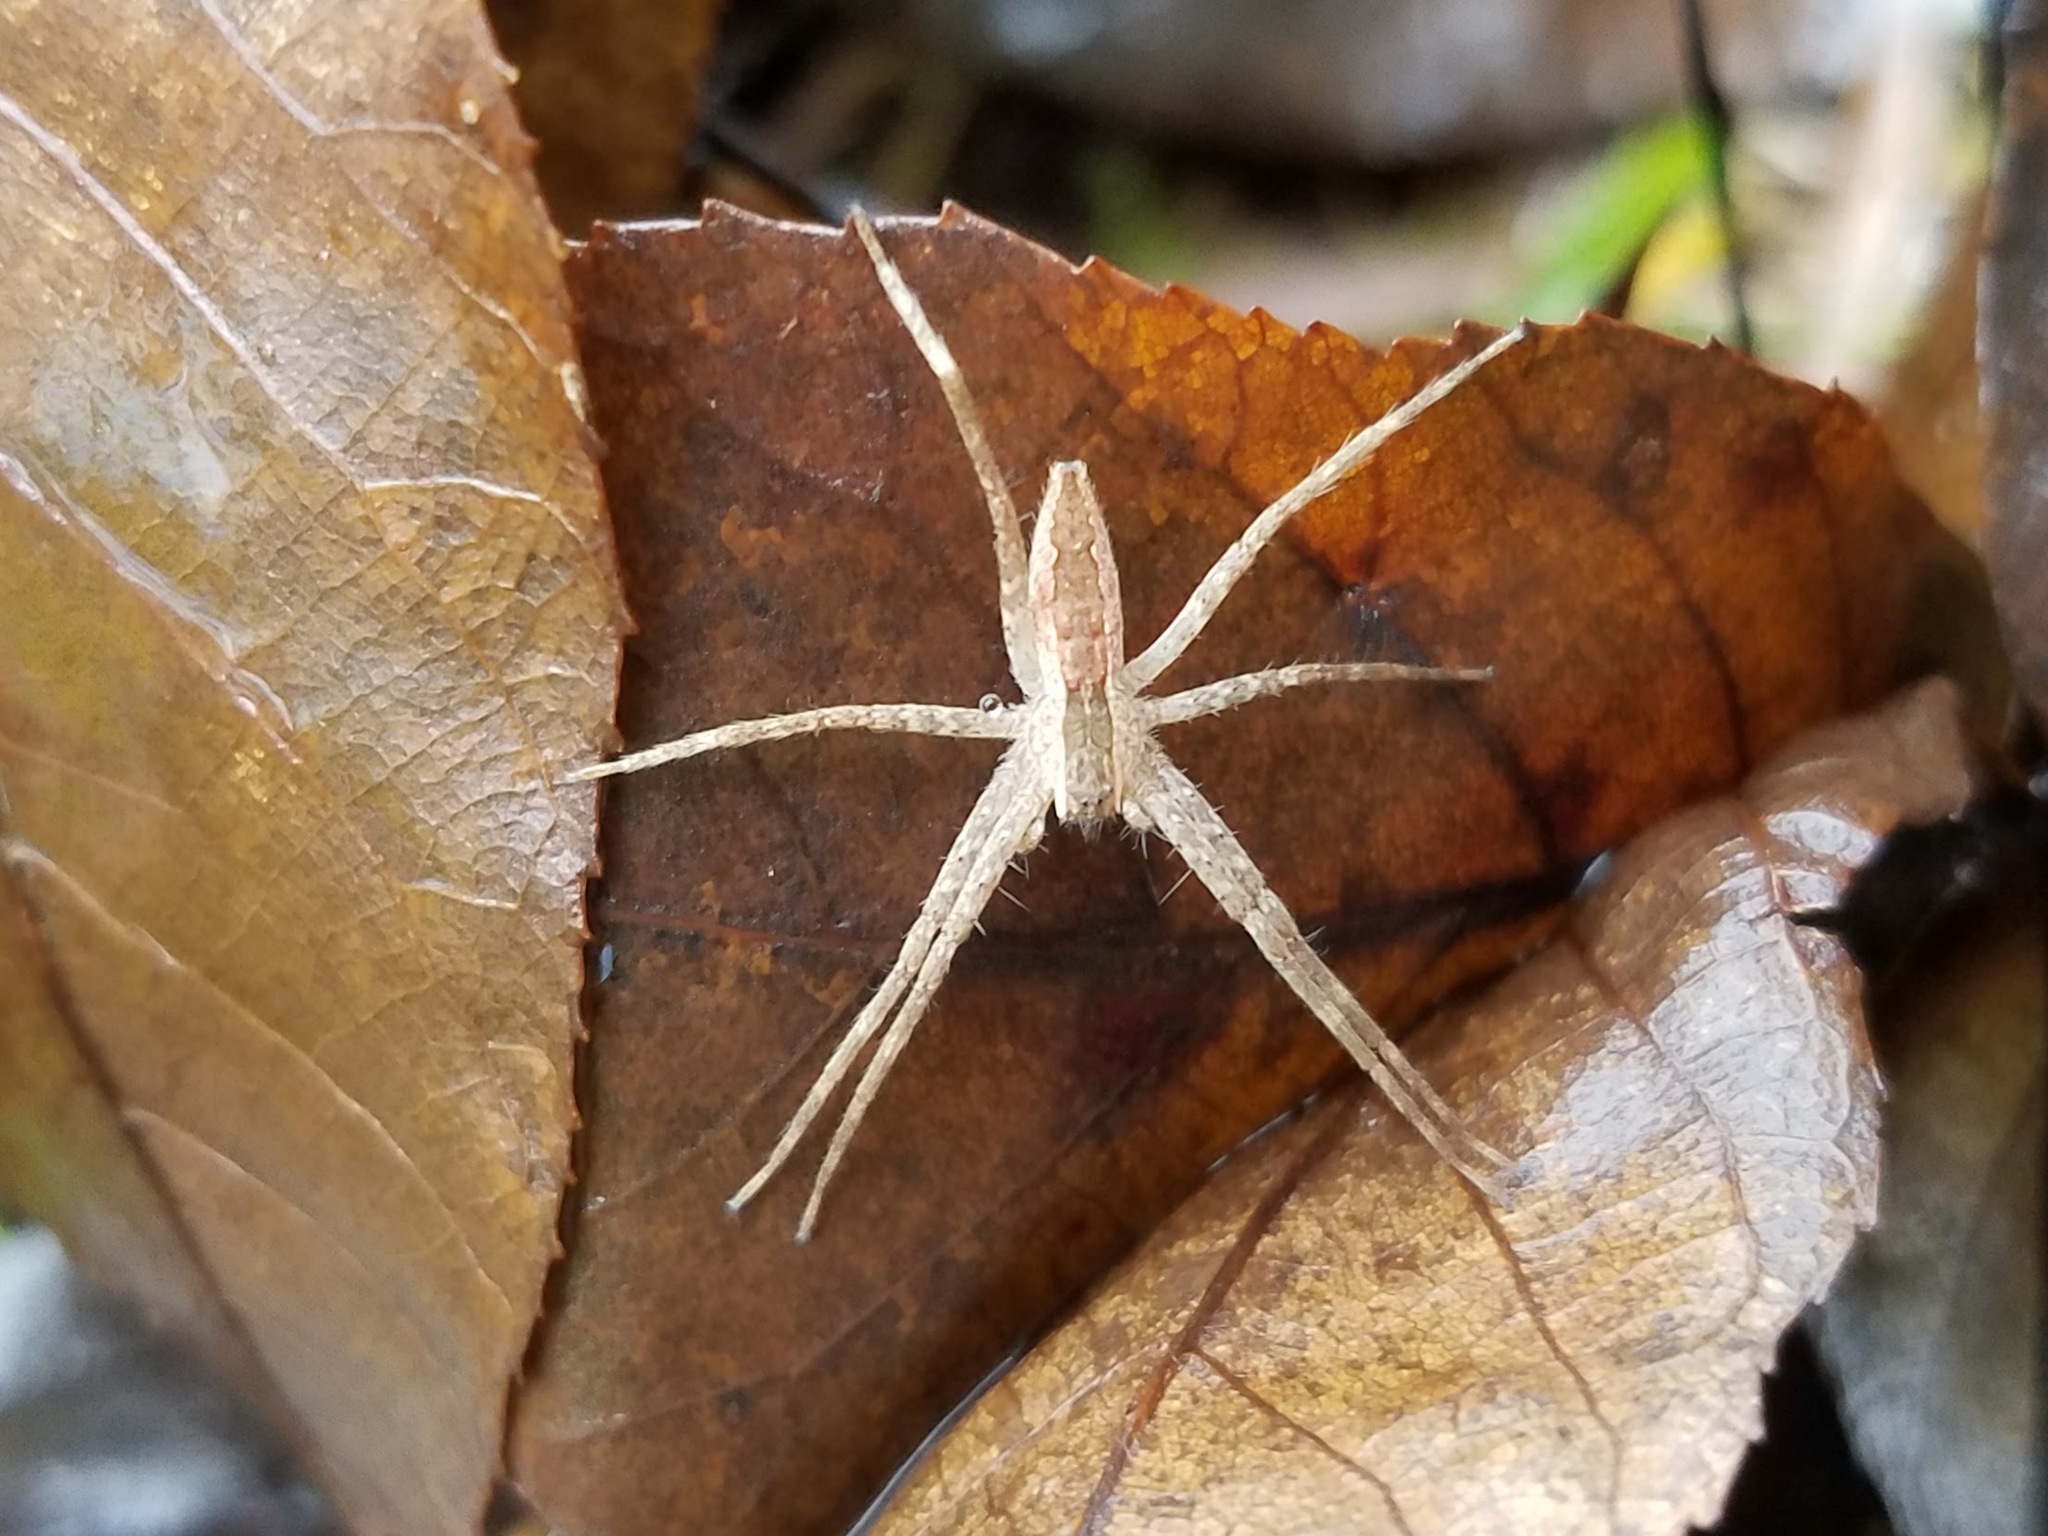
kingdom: Animalia
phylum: Arthropoda
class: Arachnida
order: Araneae
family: Pisauridae
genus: Pisaurina
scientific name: Pisaurina mira
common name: American nursery web spider
